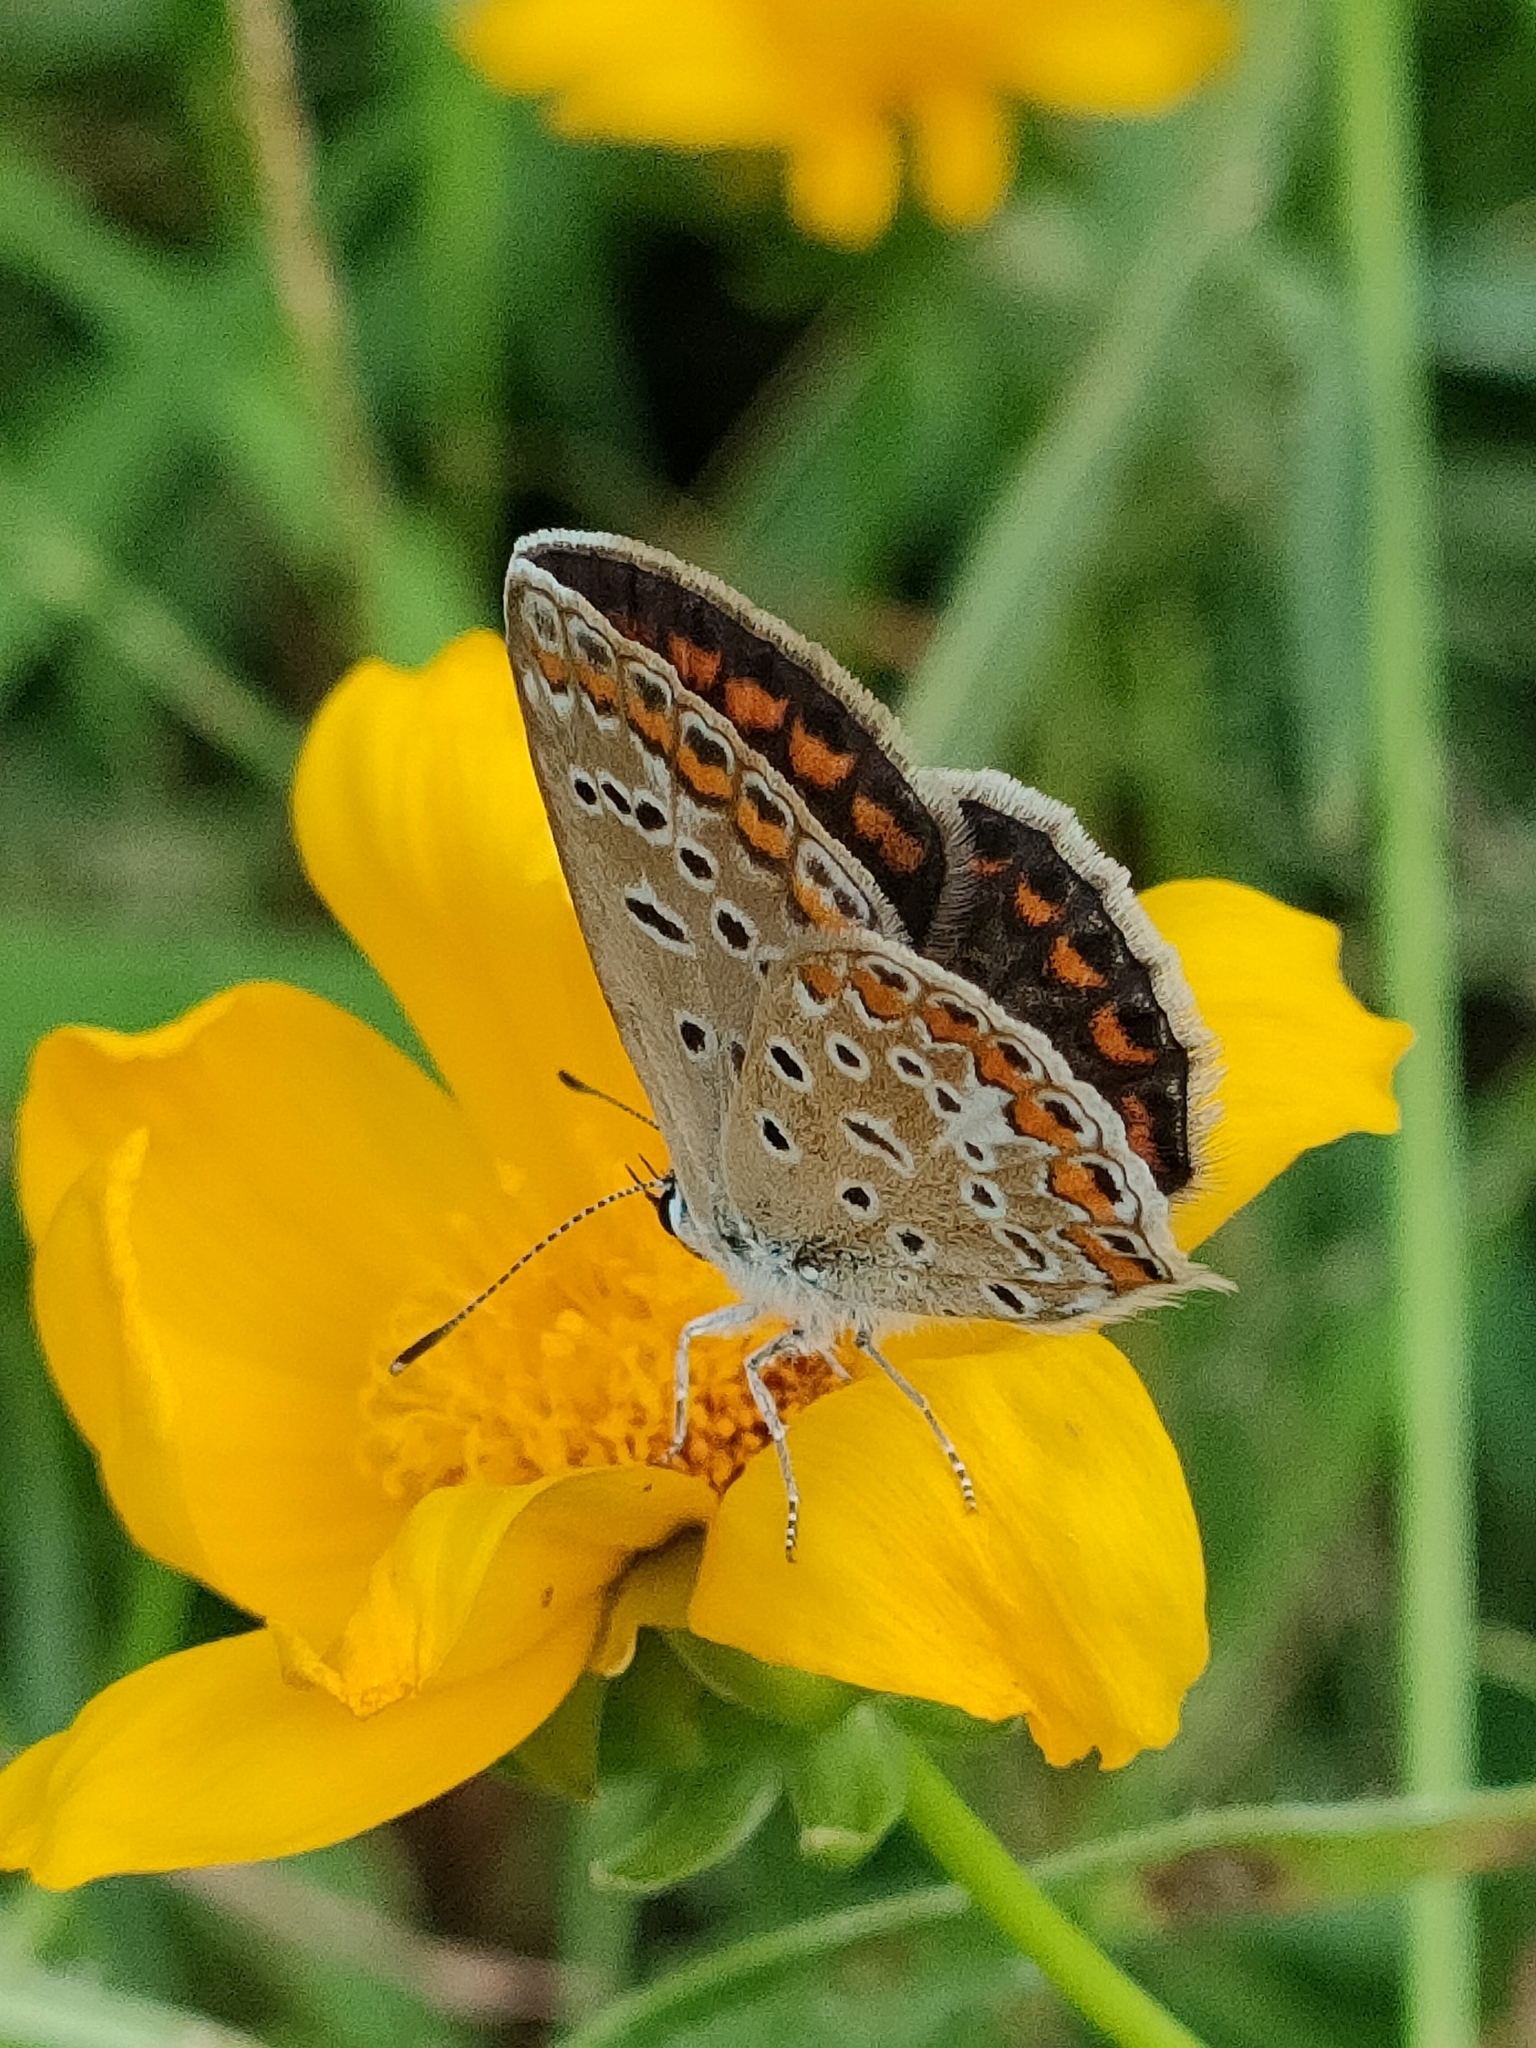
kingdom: Animalia
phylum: Arthropoda
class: Insecta
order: Lepidoptera
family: Lycaenidae
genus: Polyommatus
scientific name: Polyommatus icarus
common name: Common blue
